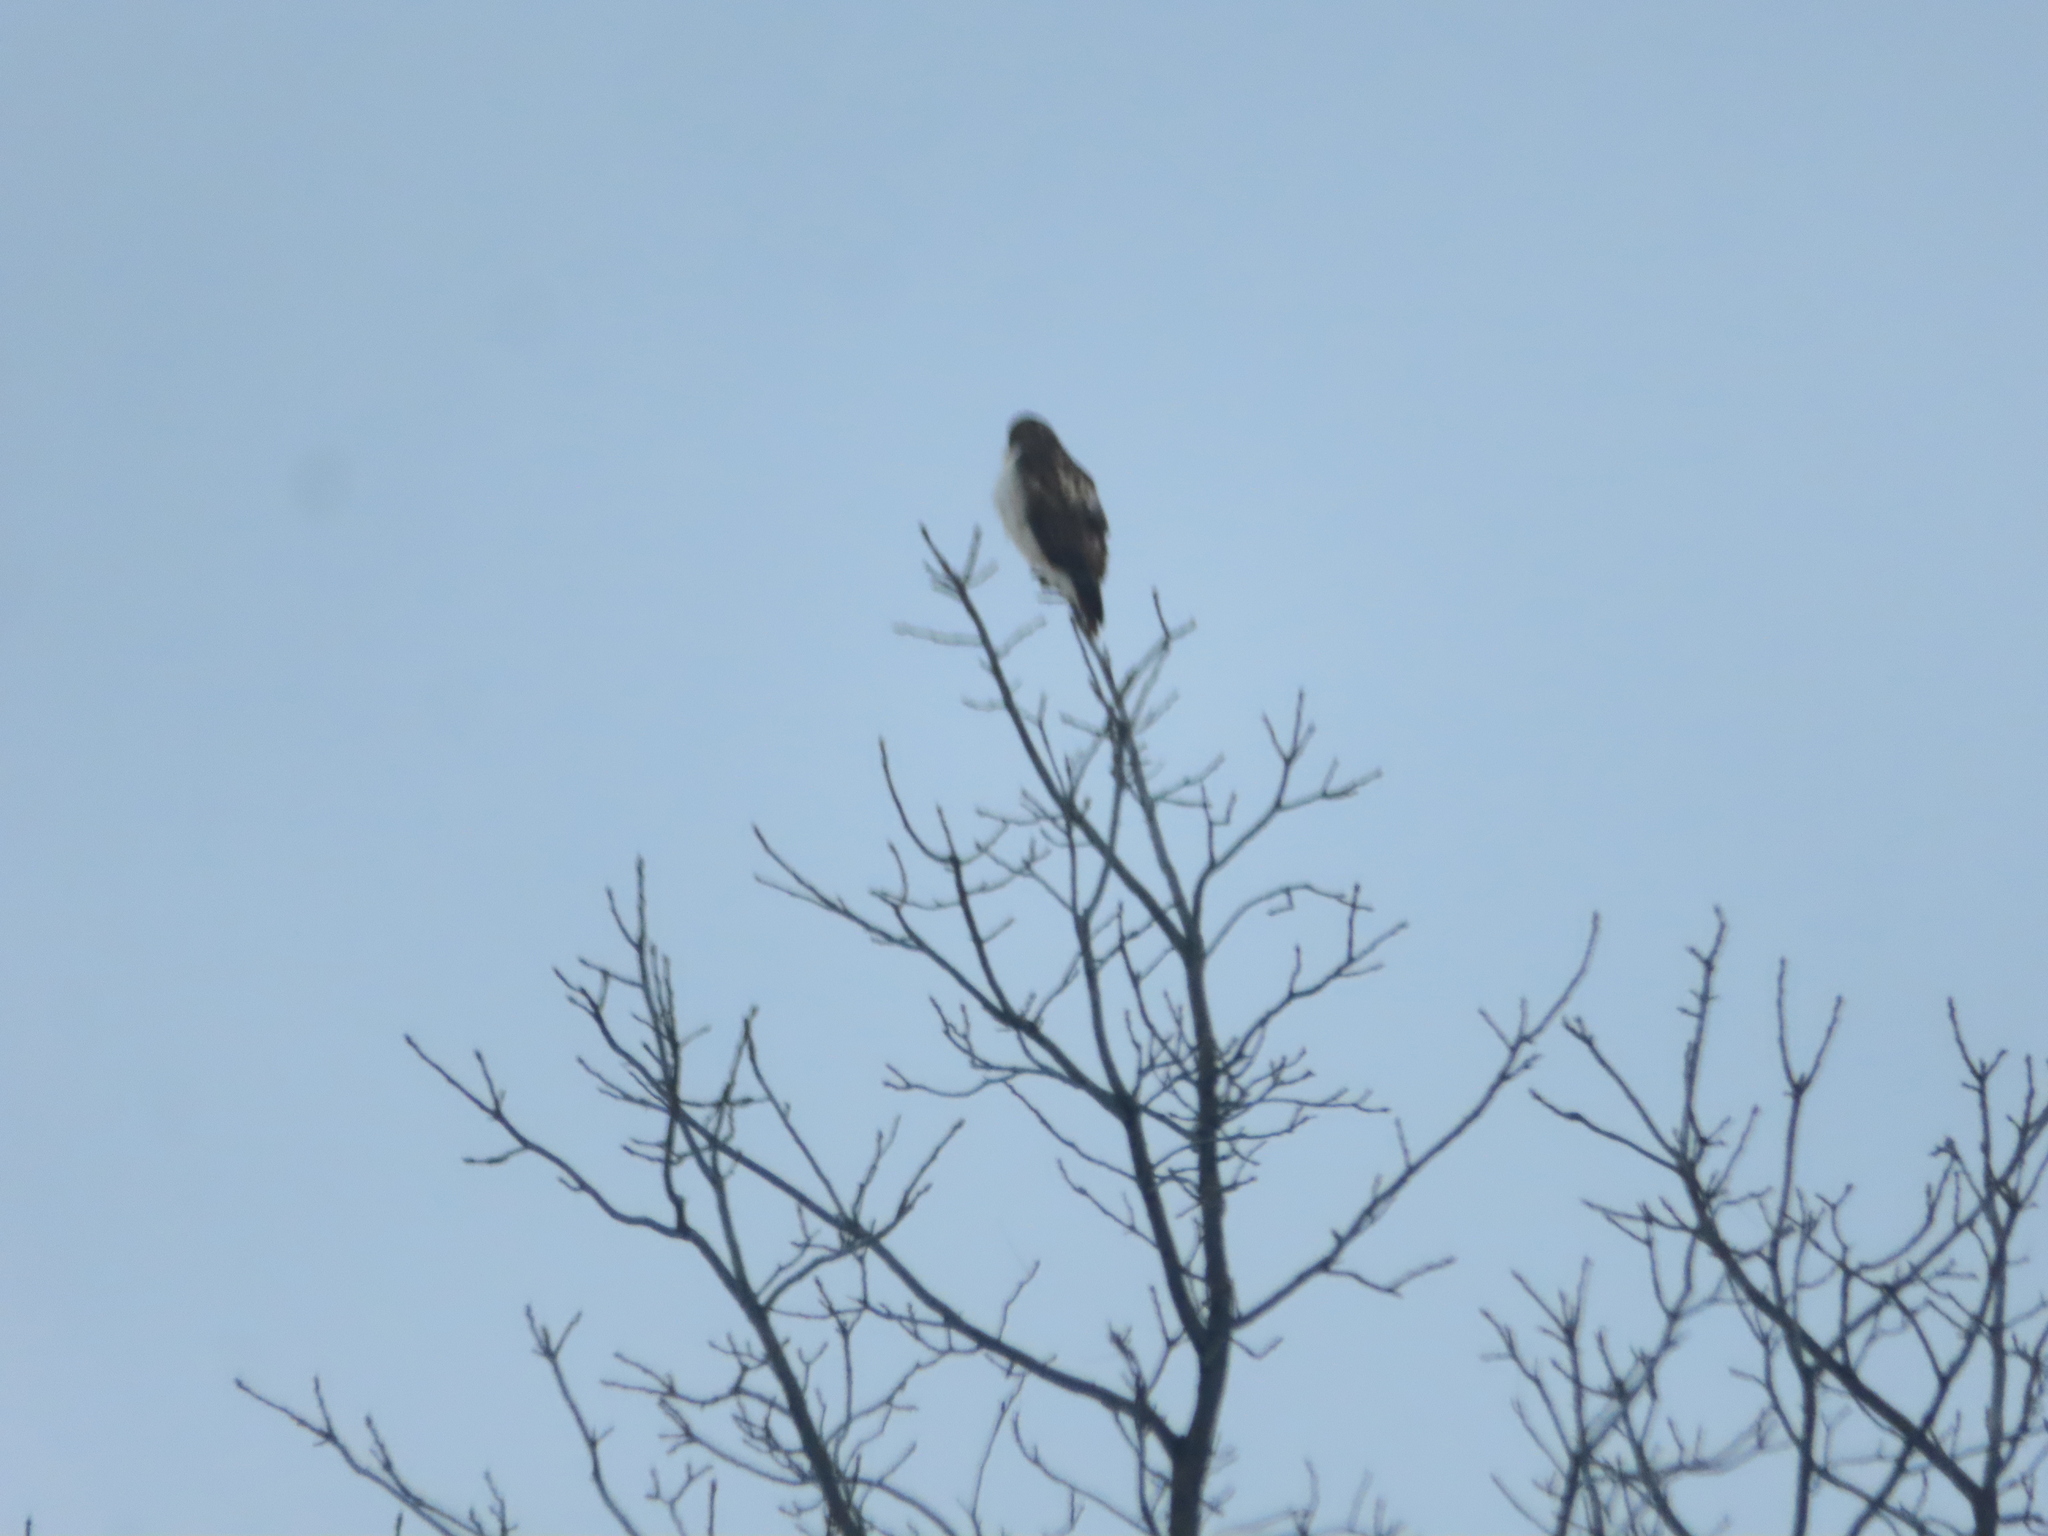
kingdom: Animalia
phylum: Chordata
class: Aves
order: Accipitriformes
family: Accipitridae
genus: Buteo
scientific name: Buteo jamaicensis
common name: Red-tailed hawk
